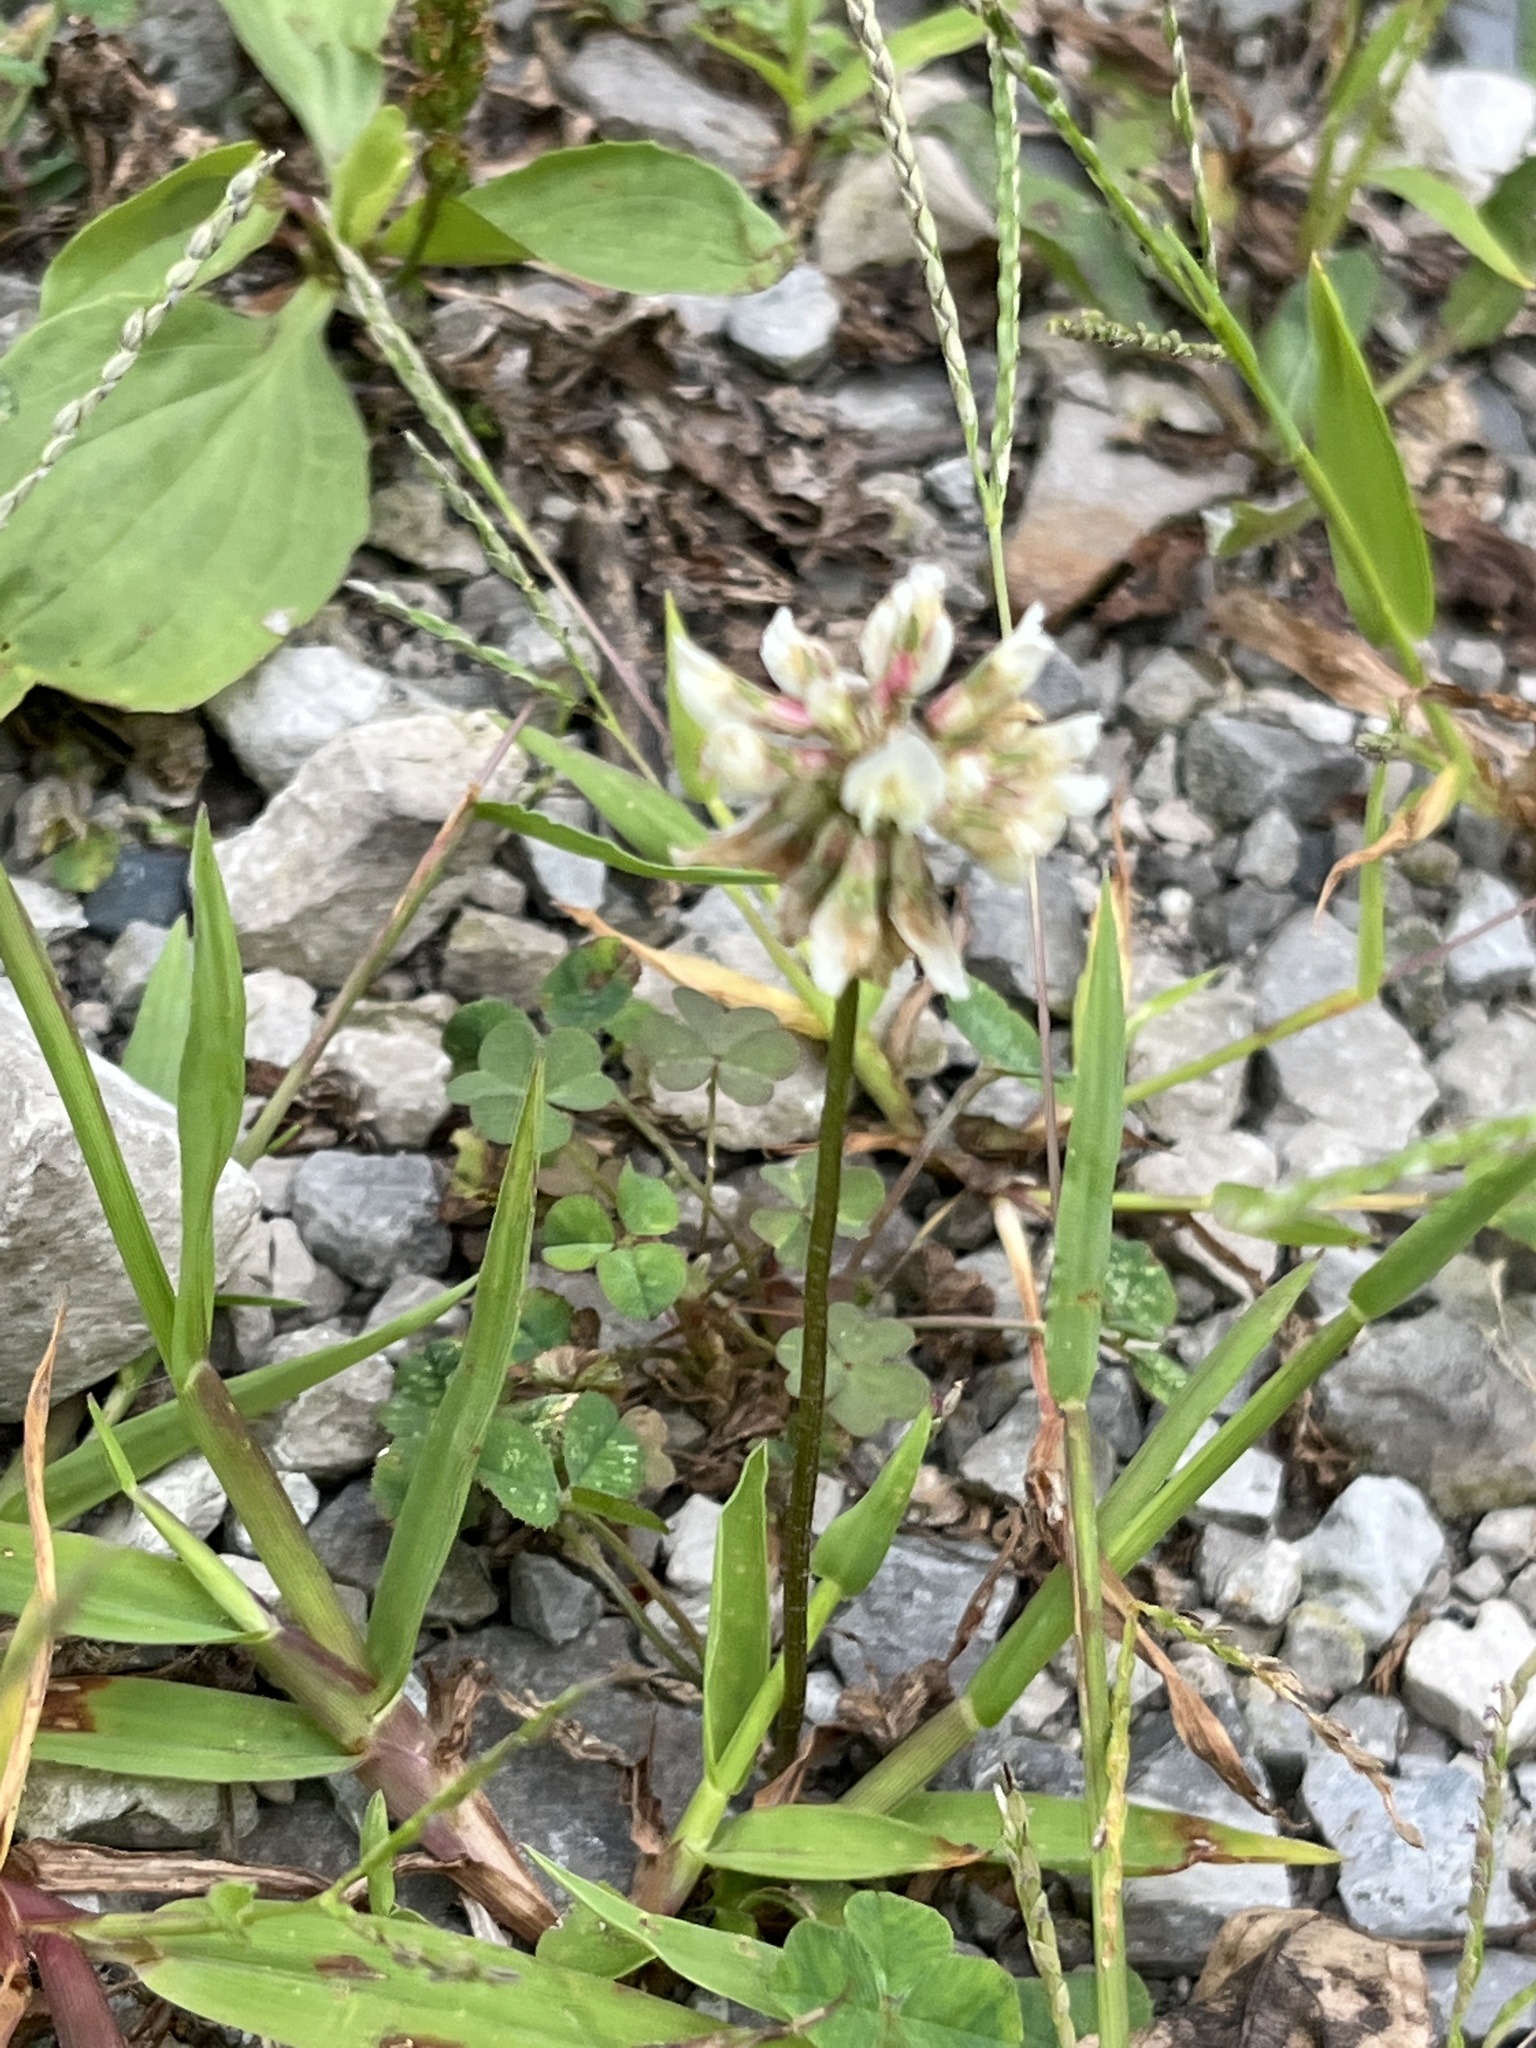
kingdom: Plantae
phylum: Tracheophyta
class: Magnoliopsida
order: Fabales
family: Fabaceae
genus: Trifolium
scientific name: Trifolium repens
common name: White clover
